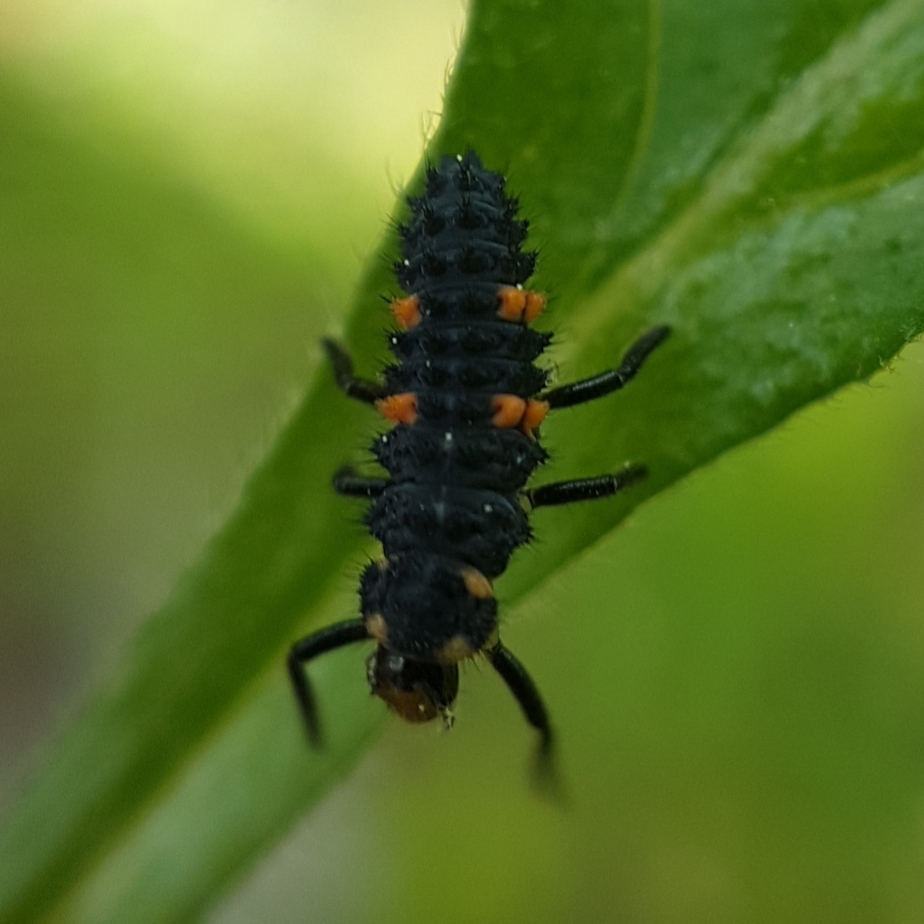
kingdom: Animalia
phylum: Arthropoda
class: Insecta
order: Coleoptera
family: Coccinellidae
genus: Coccinella
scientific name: Coccinella septempunctata
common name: Sevenspotted lady beetle
